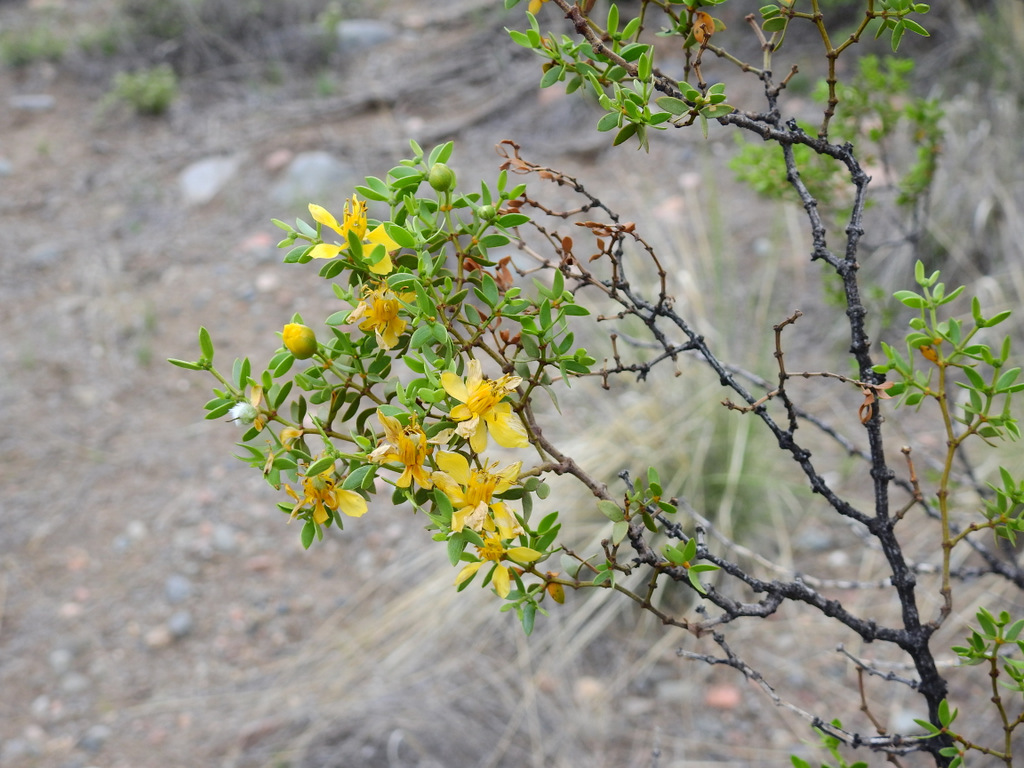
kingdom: Plantae
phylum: Tracheophyta
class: Magnoliopsida
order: Zygophyllales
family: Zygophyllaceae
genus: Larrea
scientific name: Larrea divaricata
